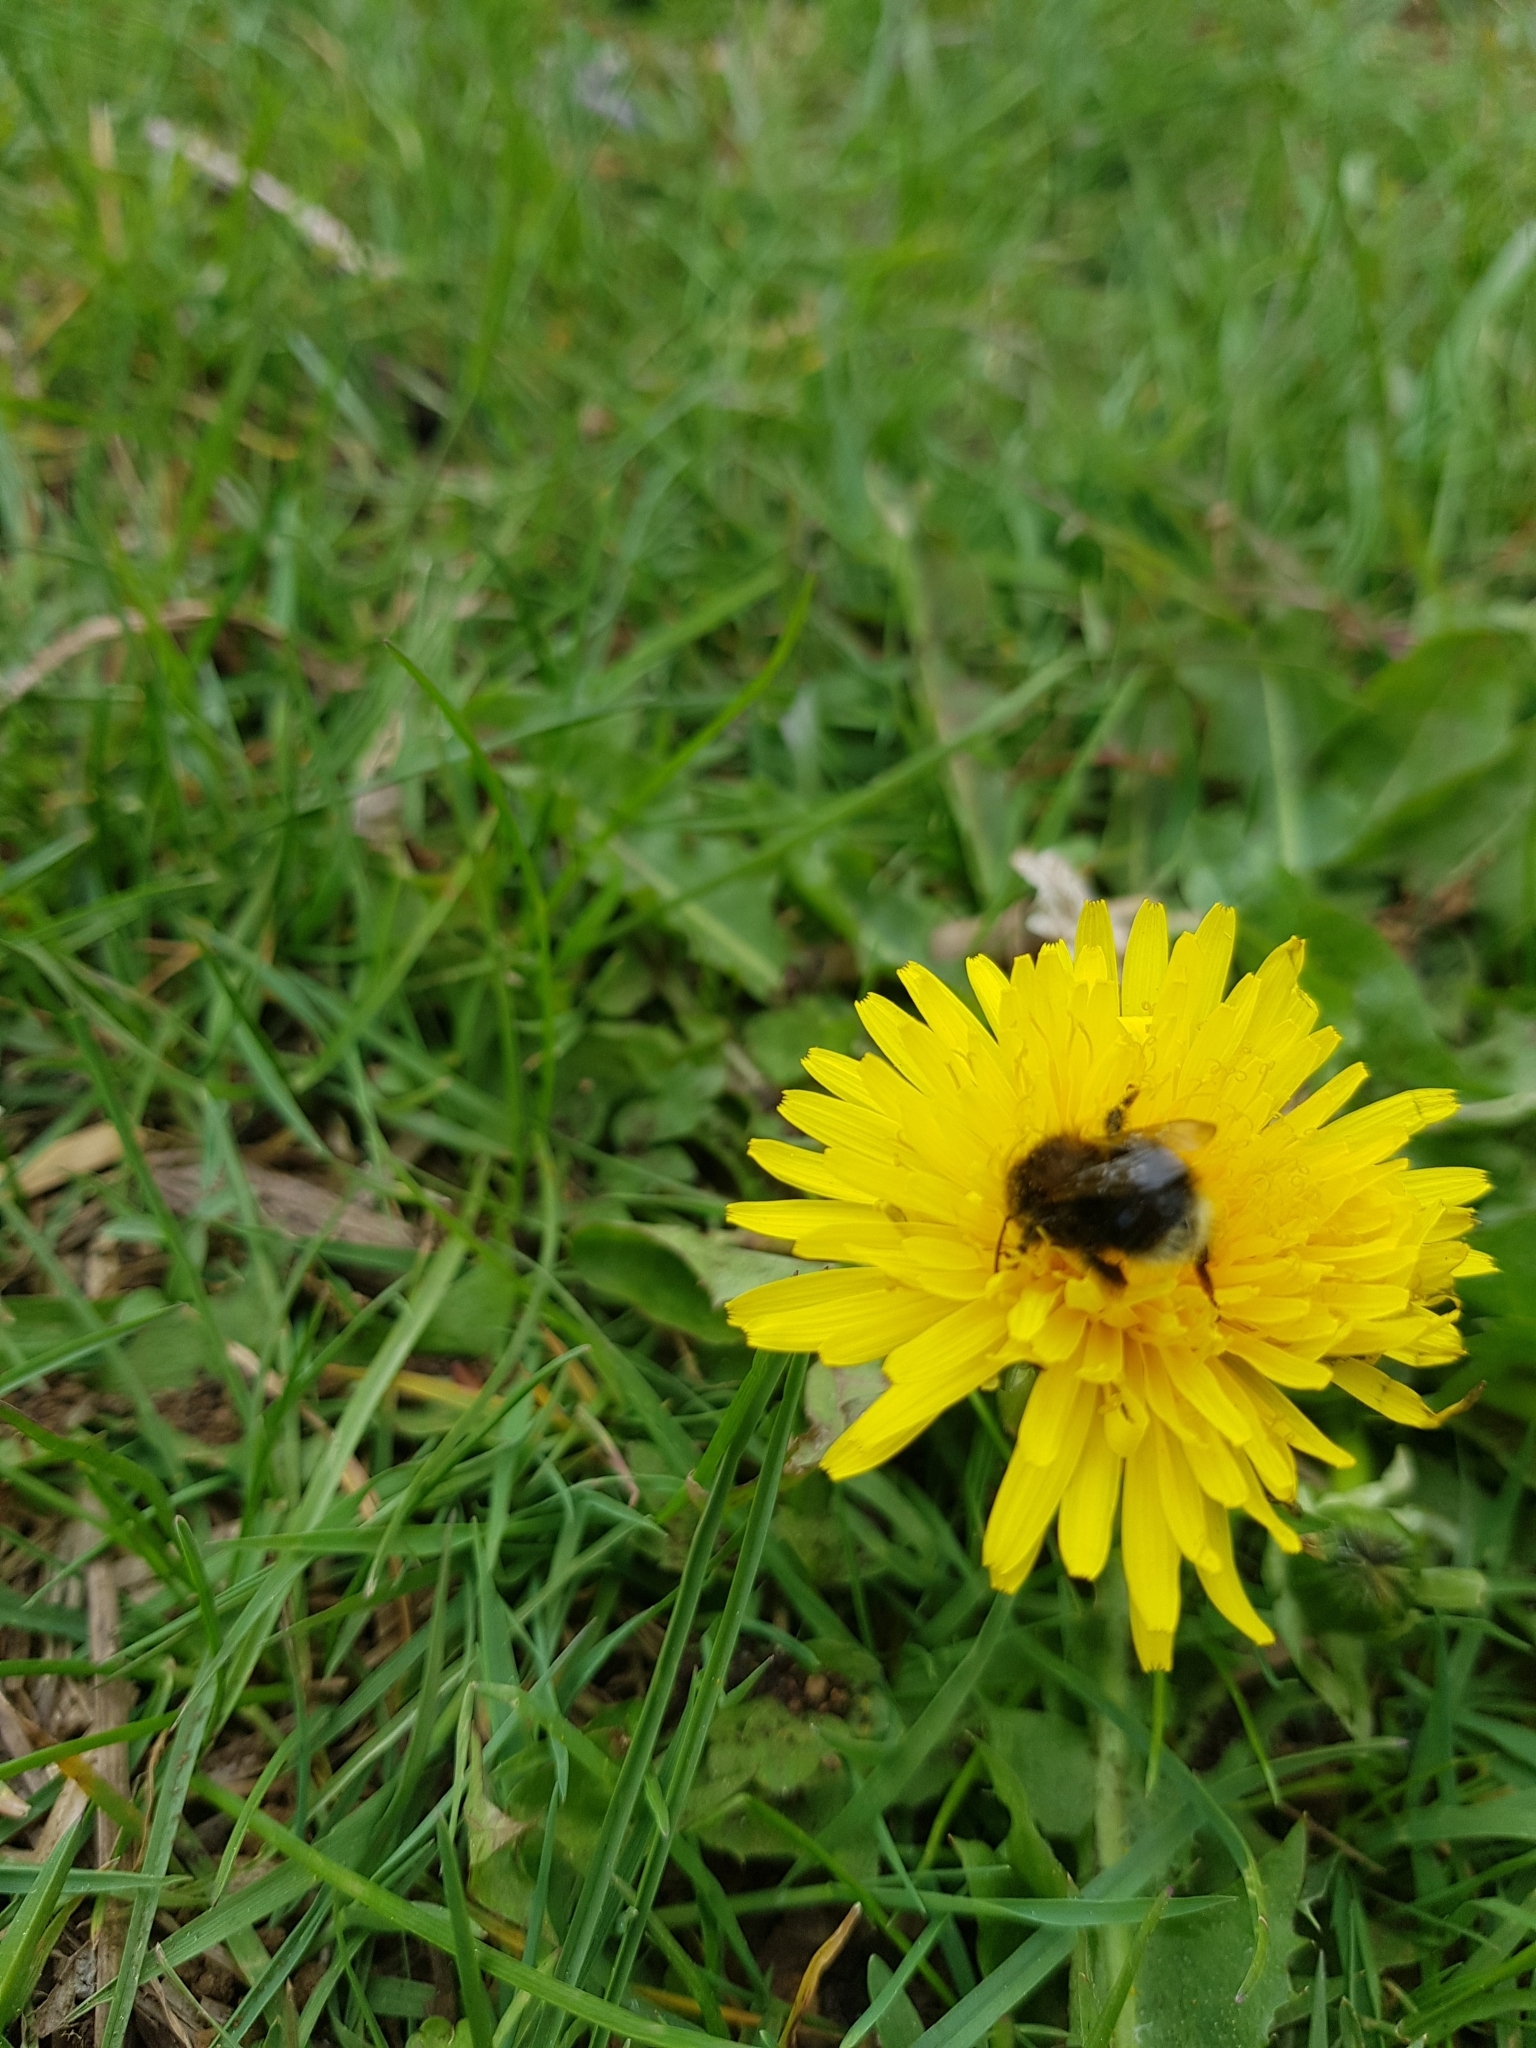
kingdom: Animalia
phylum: Arthropoda
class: Insecta
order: Hymenoptera
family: Apidae
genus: Bombus
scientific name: Bombus hypnorum
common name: New garden bumblebee
